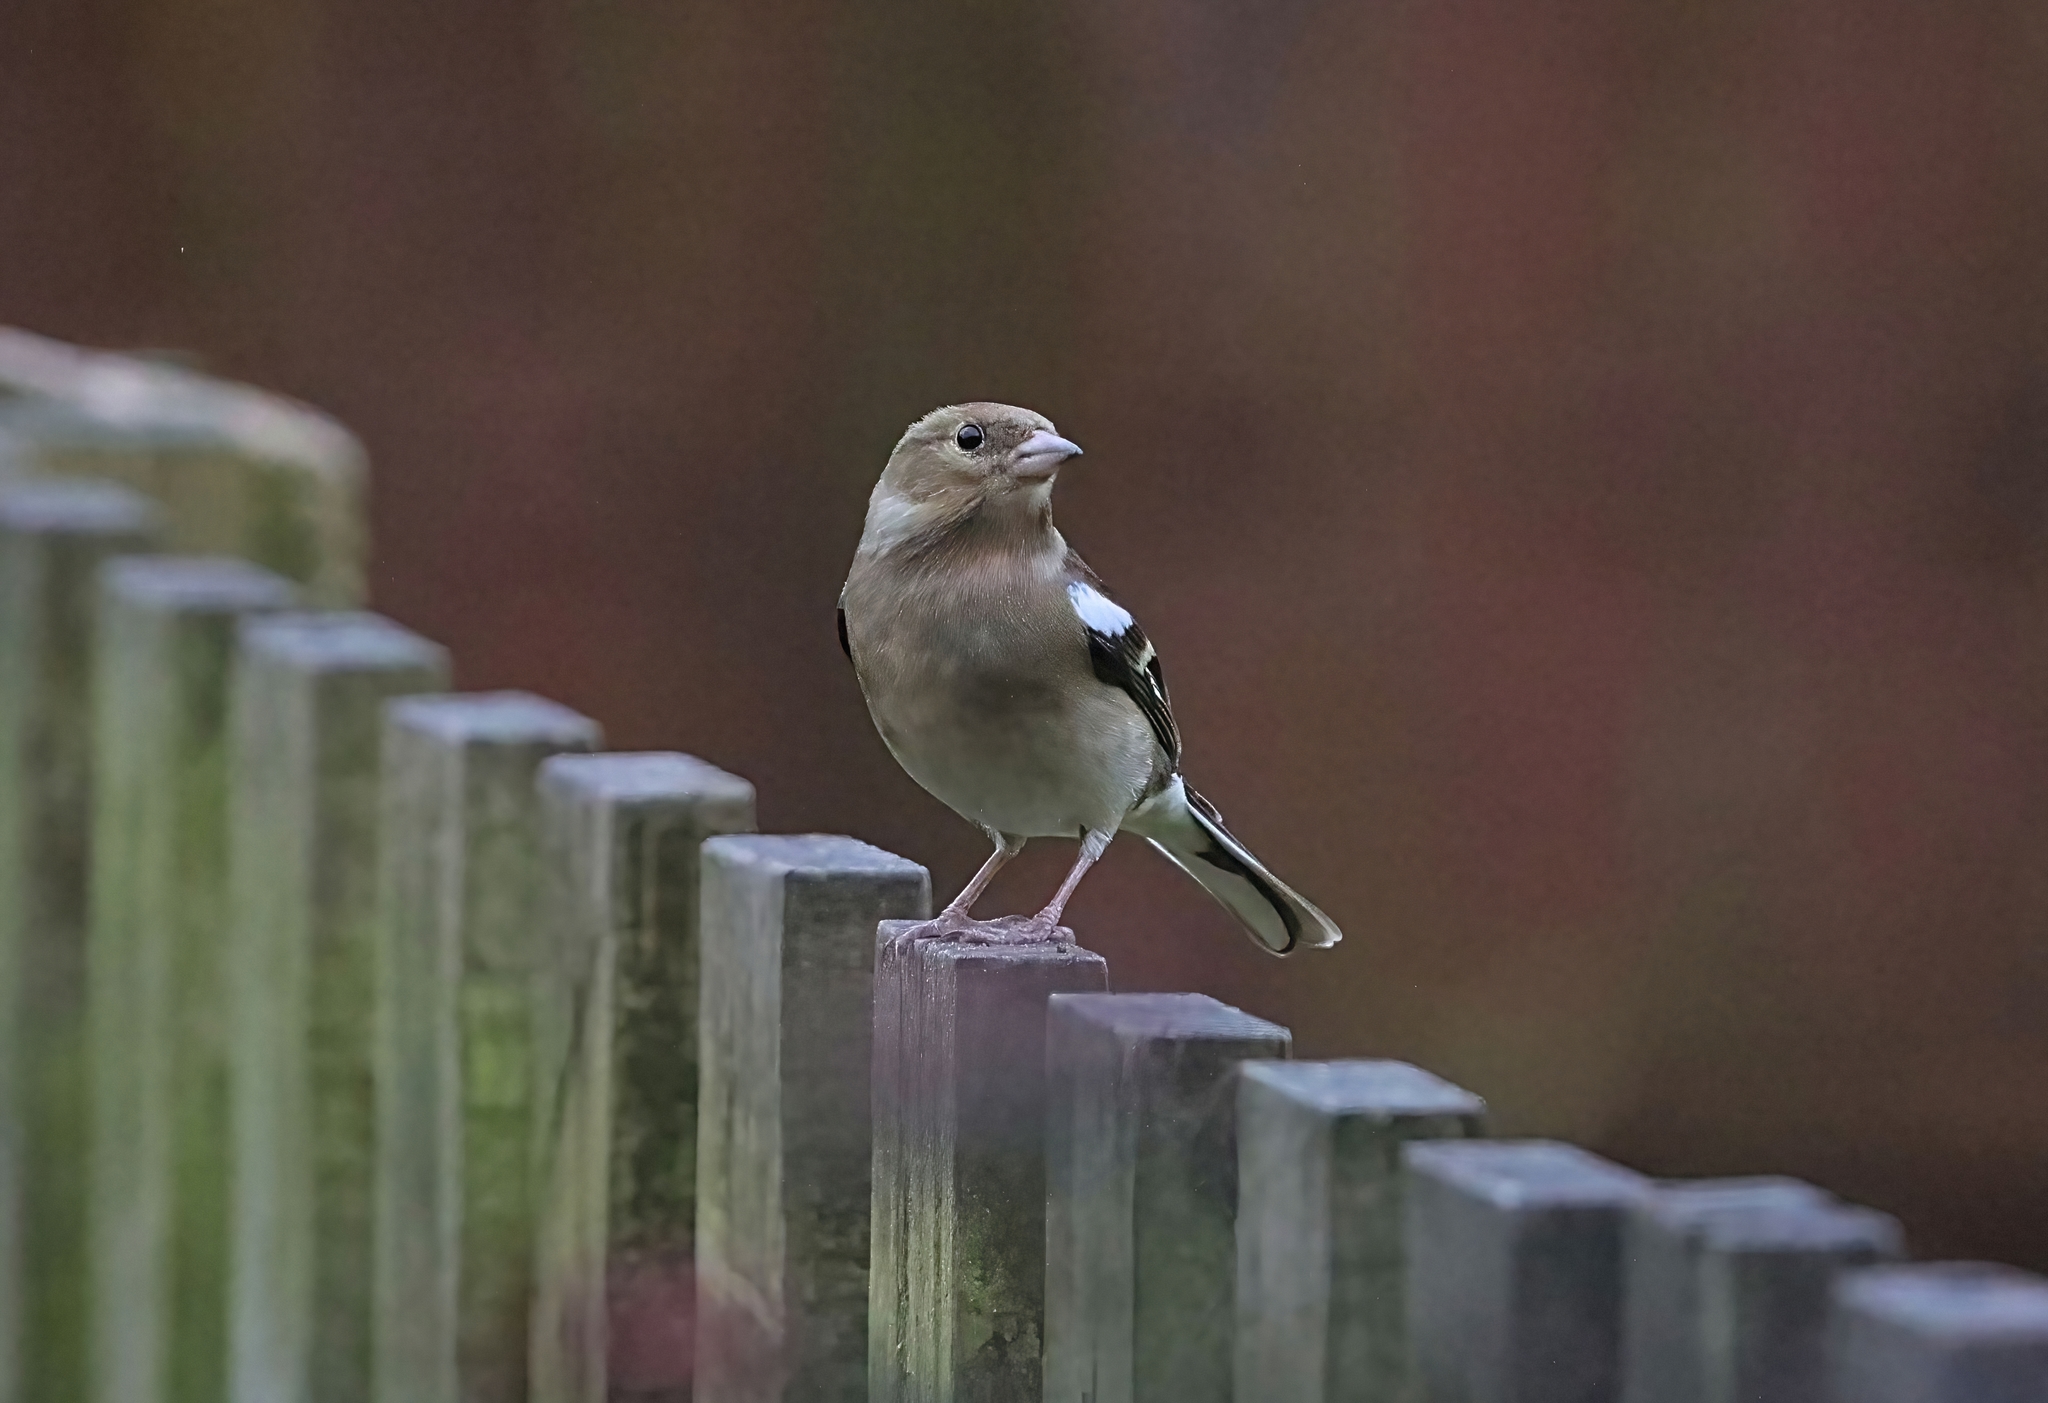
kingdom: Animalia
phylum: Chordata
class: Aves
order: Passeriformes
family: Fringillidae
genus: Fringilla
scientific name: Fringilla coelebs
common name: Common chaffinch
